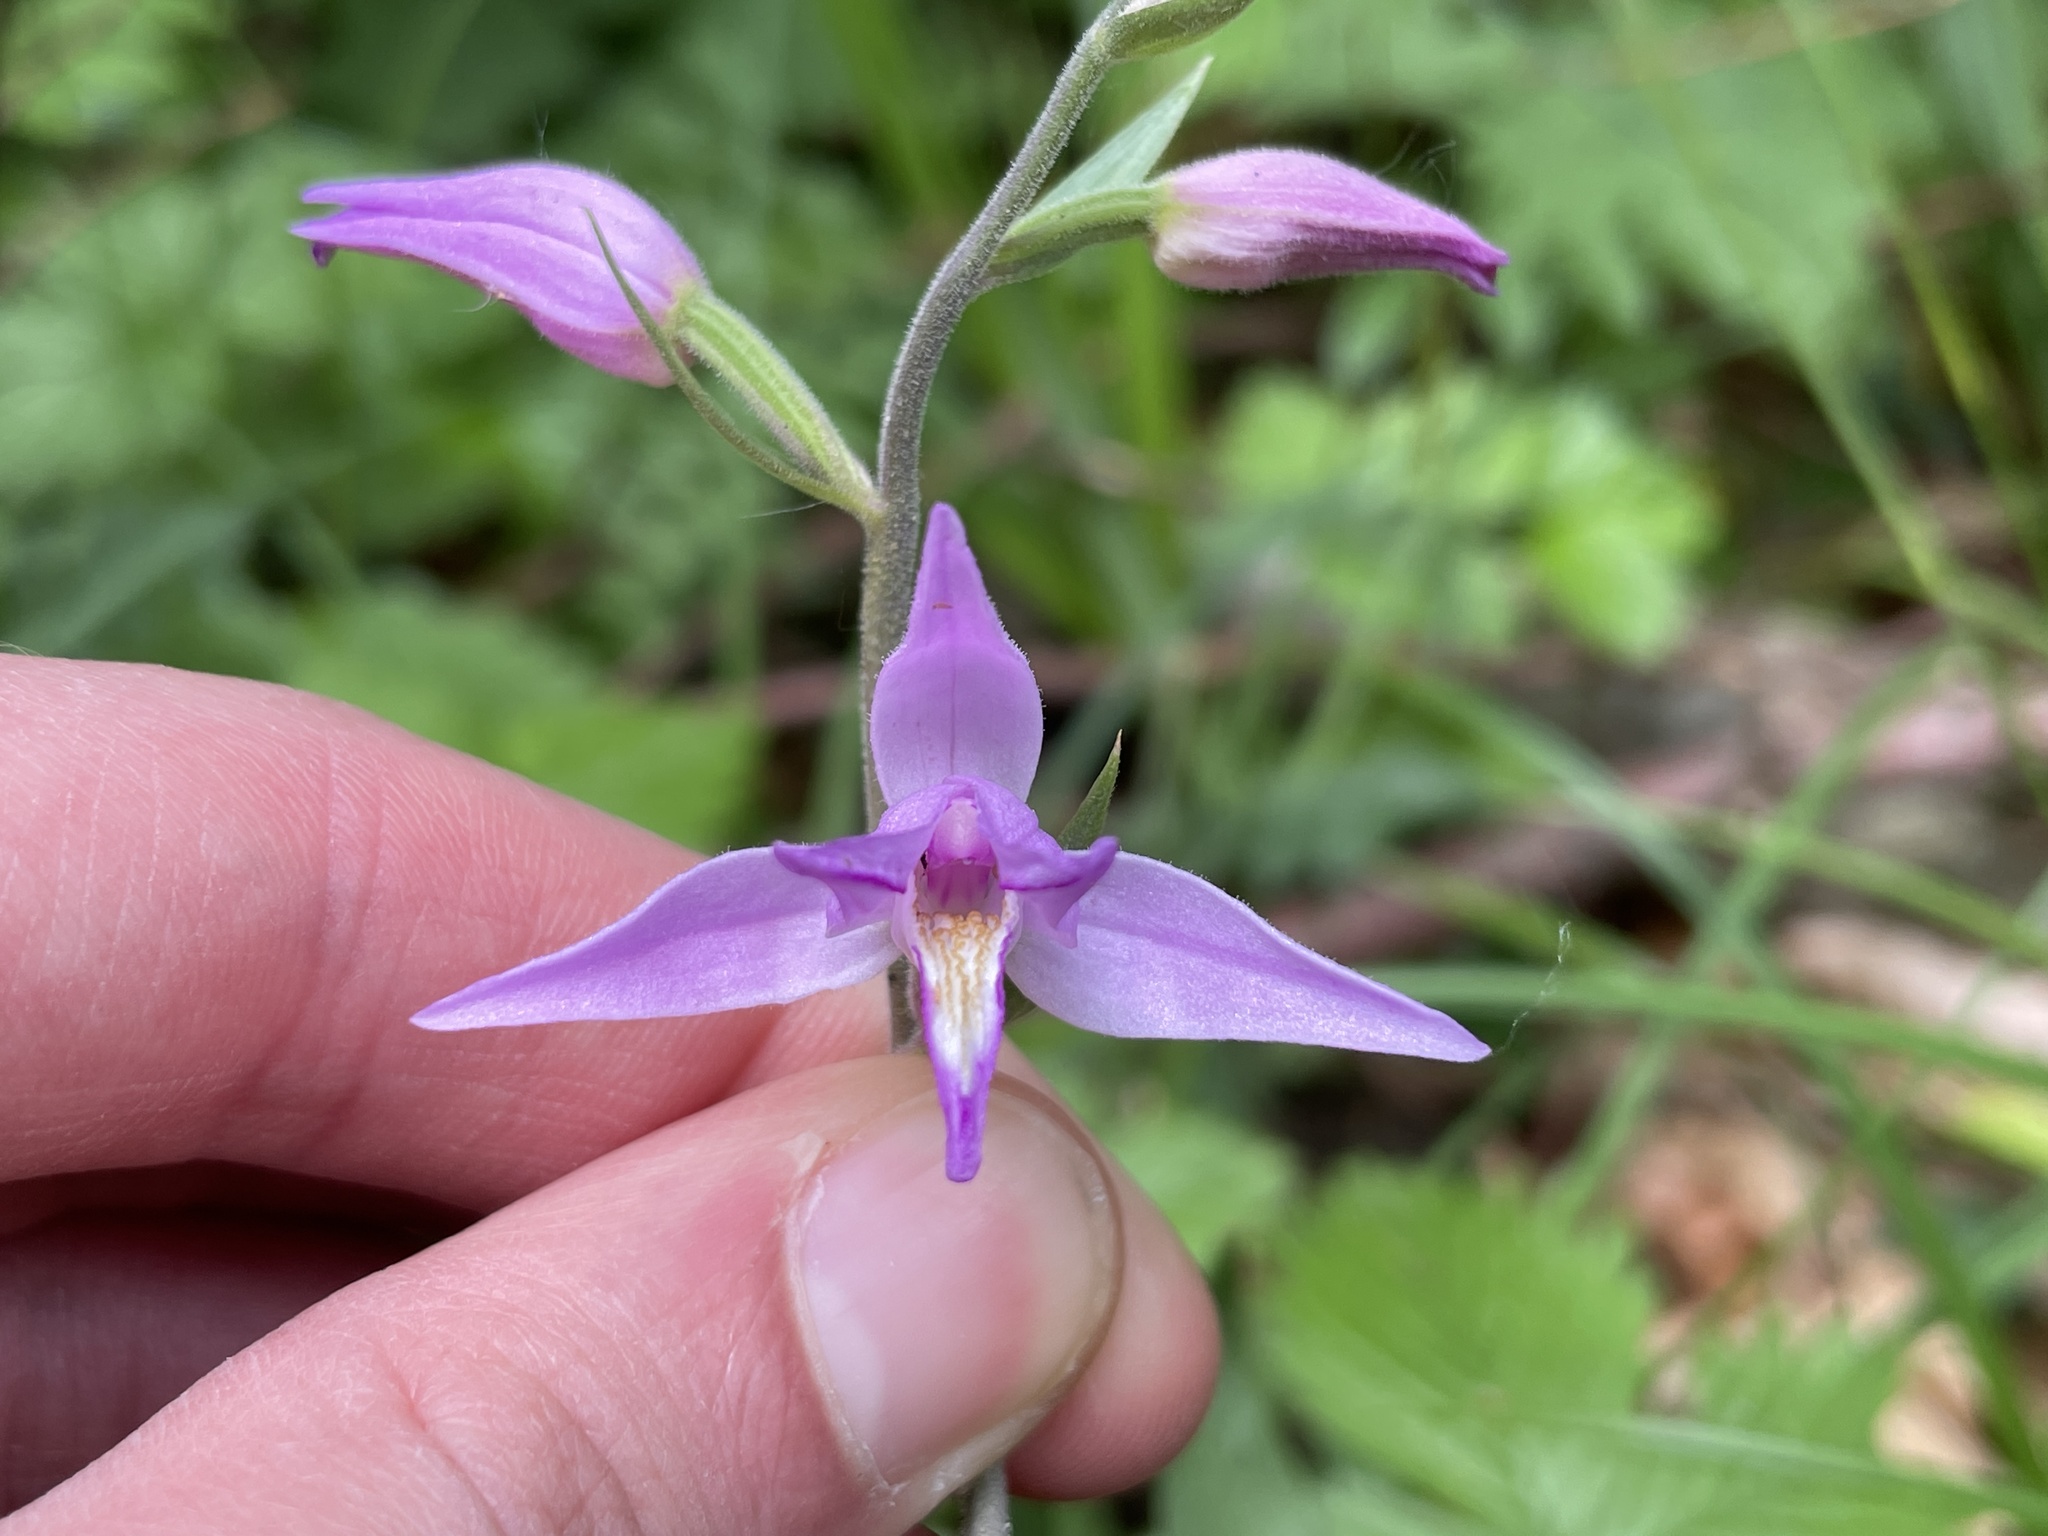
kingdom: Plantae
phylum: Tracheophyta
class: Liliopsida
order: Asparagales
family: Orchidaceae
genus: Cephalanthera
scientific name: Cephalanthera rubra
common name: Red helleborine
